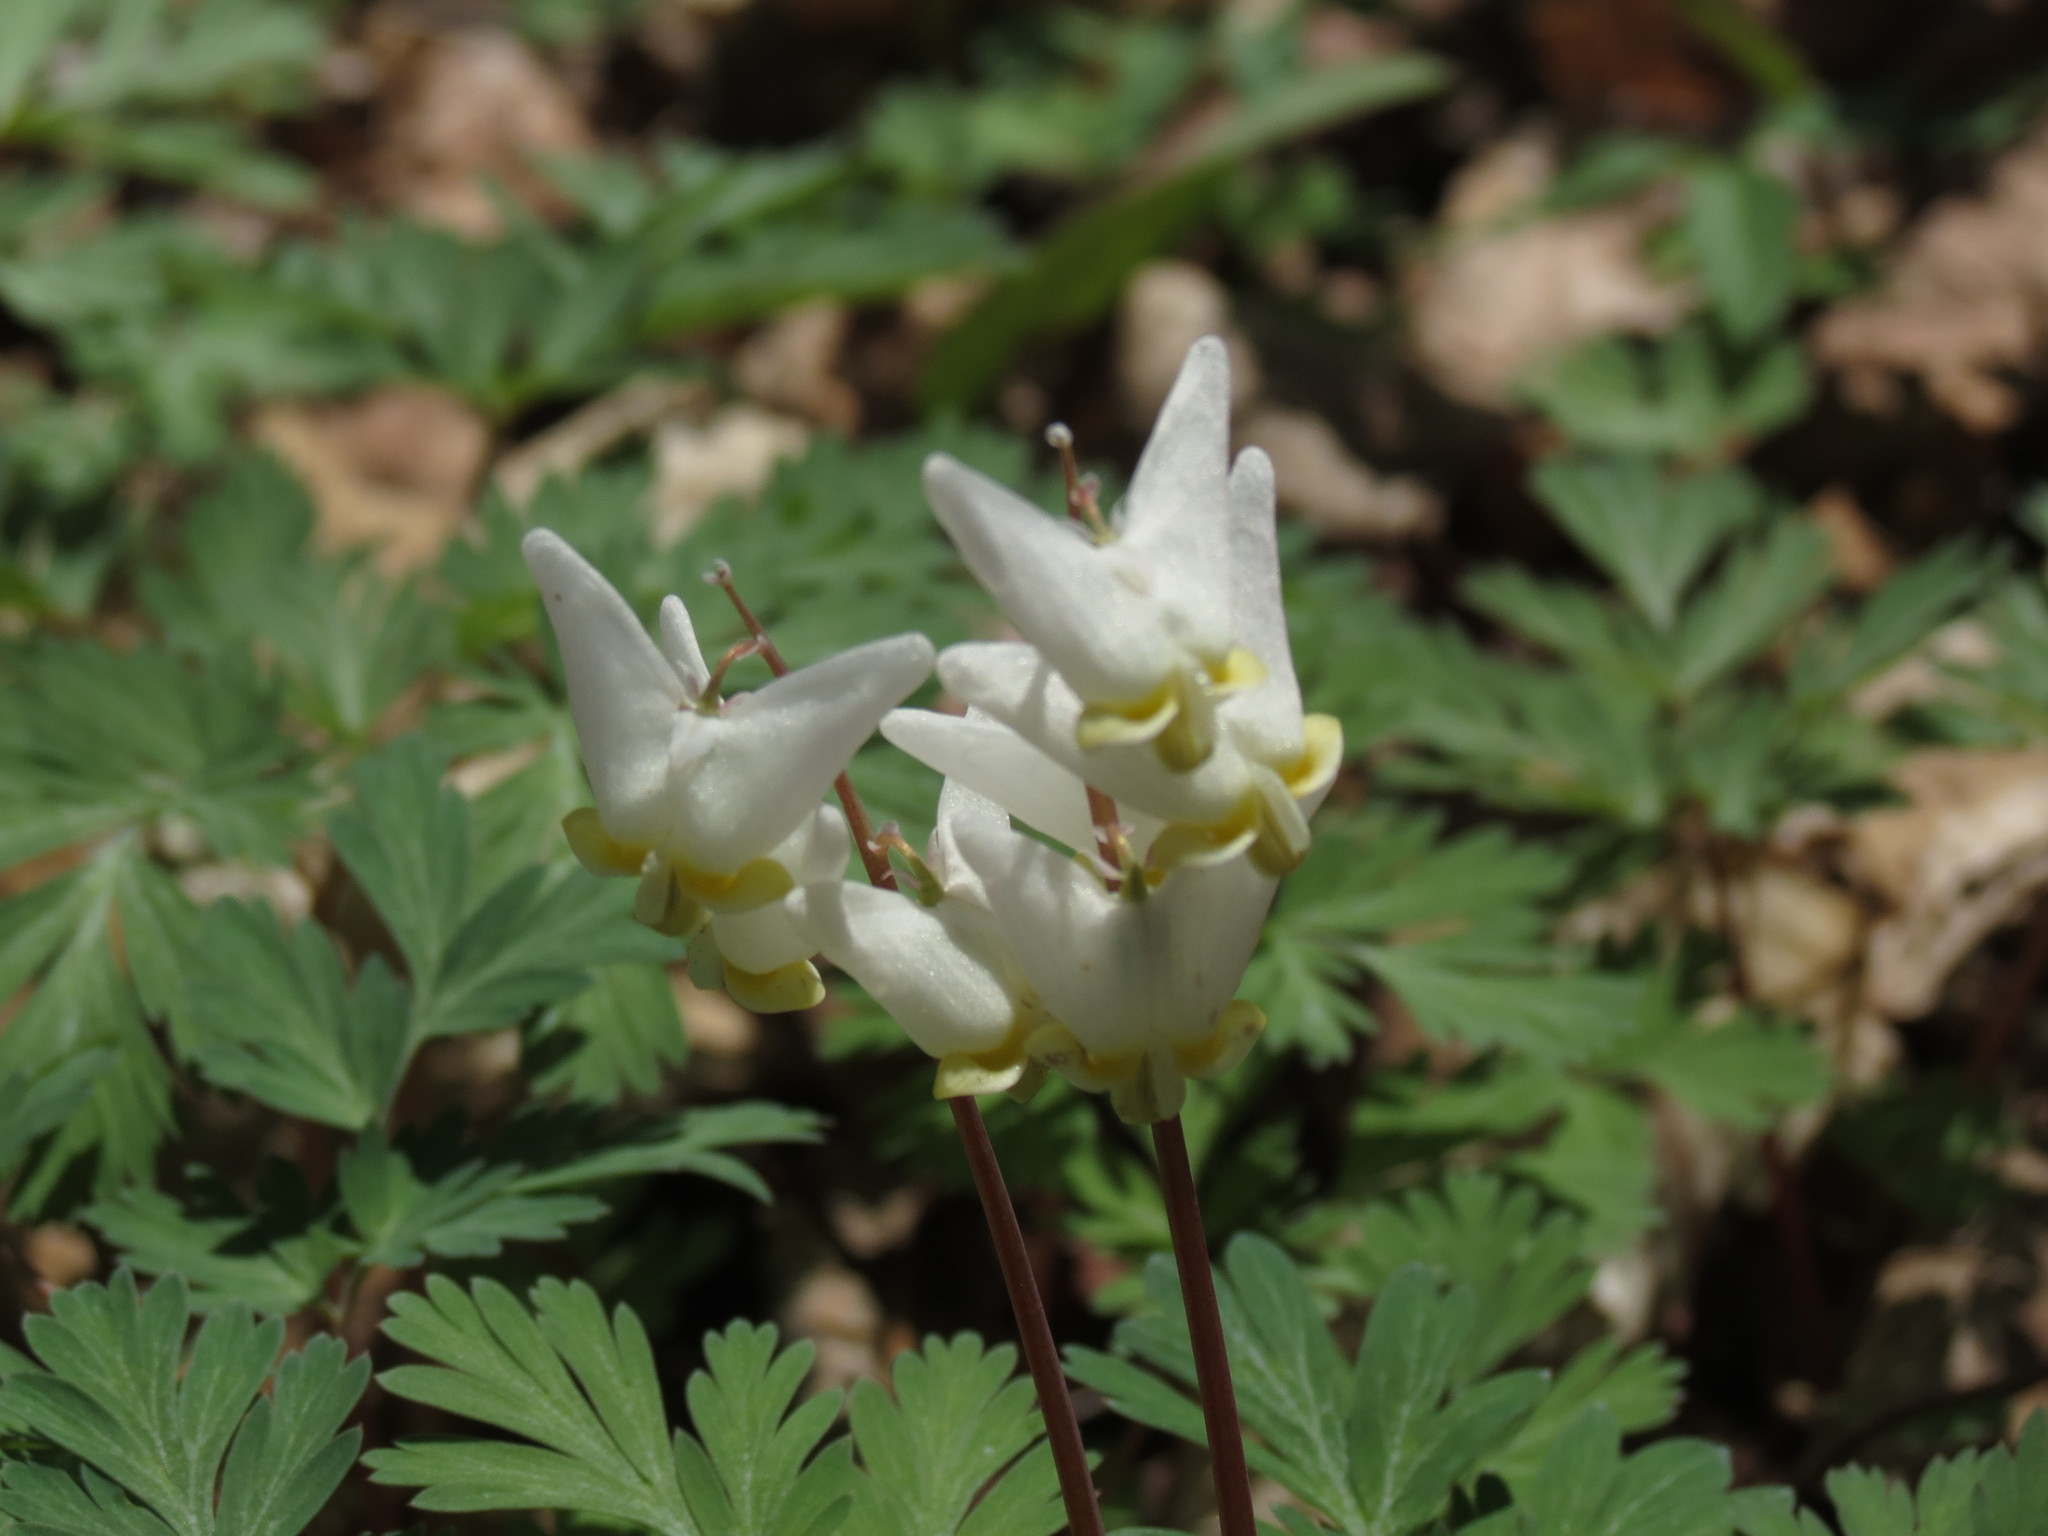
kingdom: Plantae
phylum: Tracheophyta
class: Magnoliopsida
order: Ranunculales
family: Papaveraceae
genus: Dicentra
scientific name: Dicentra cucullaria
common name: Dutchman's breeches
